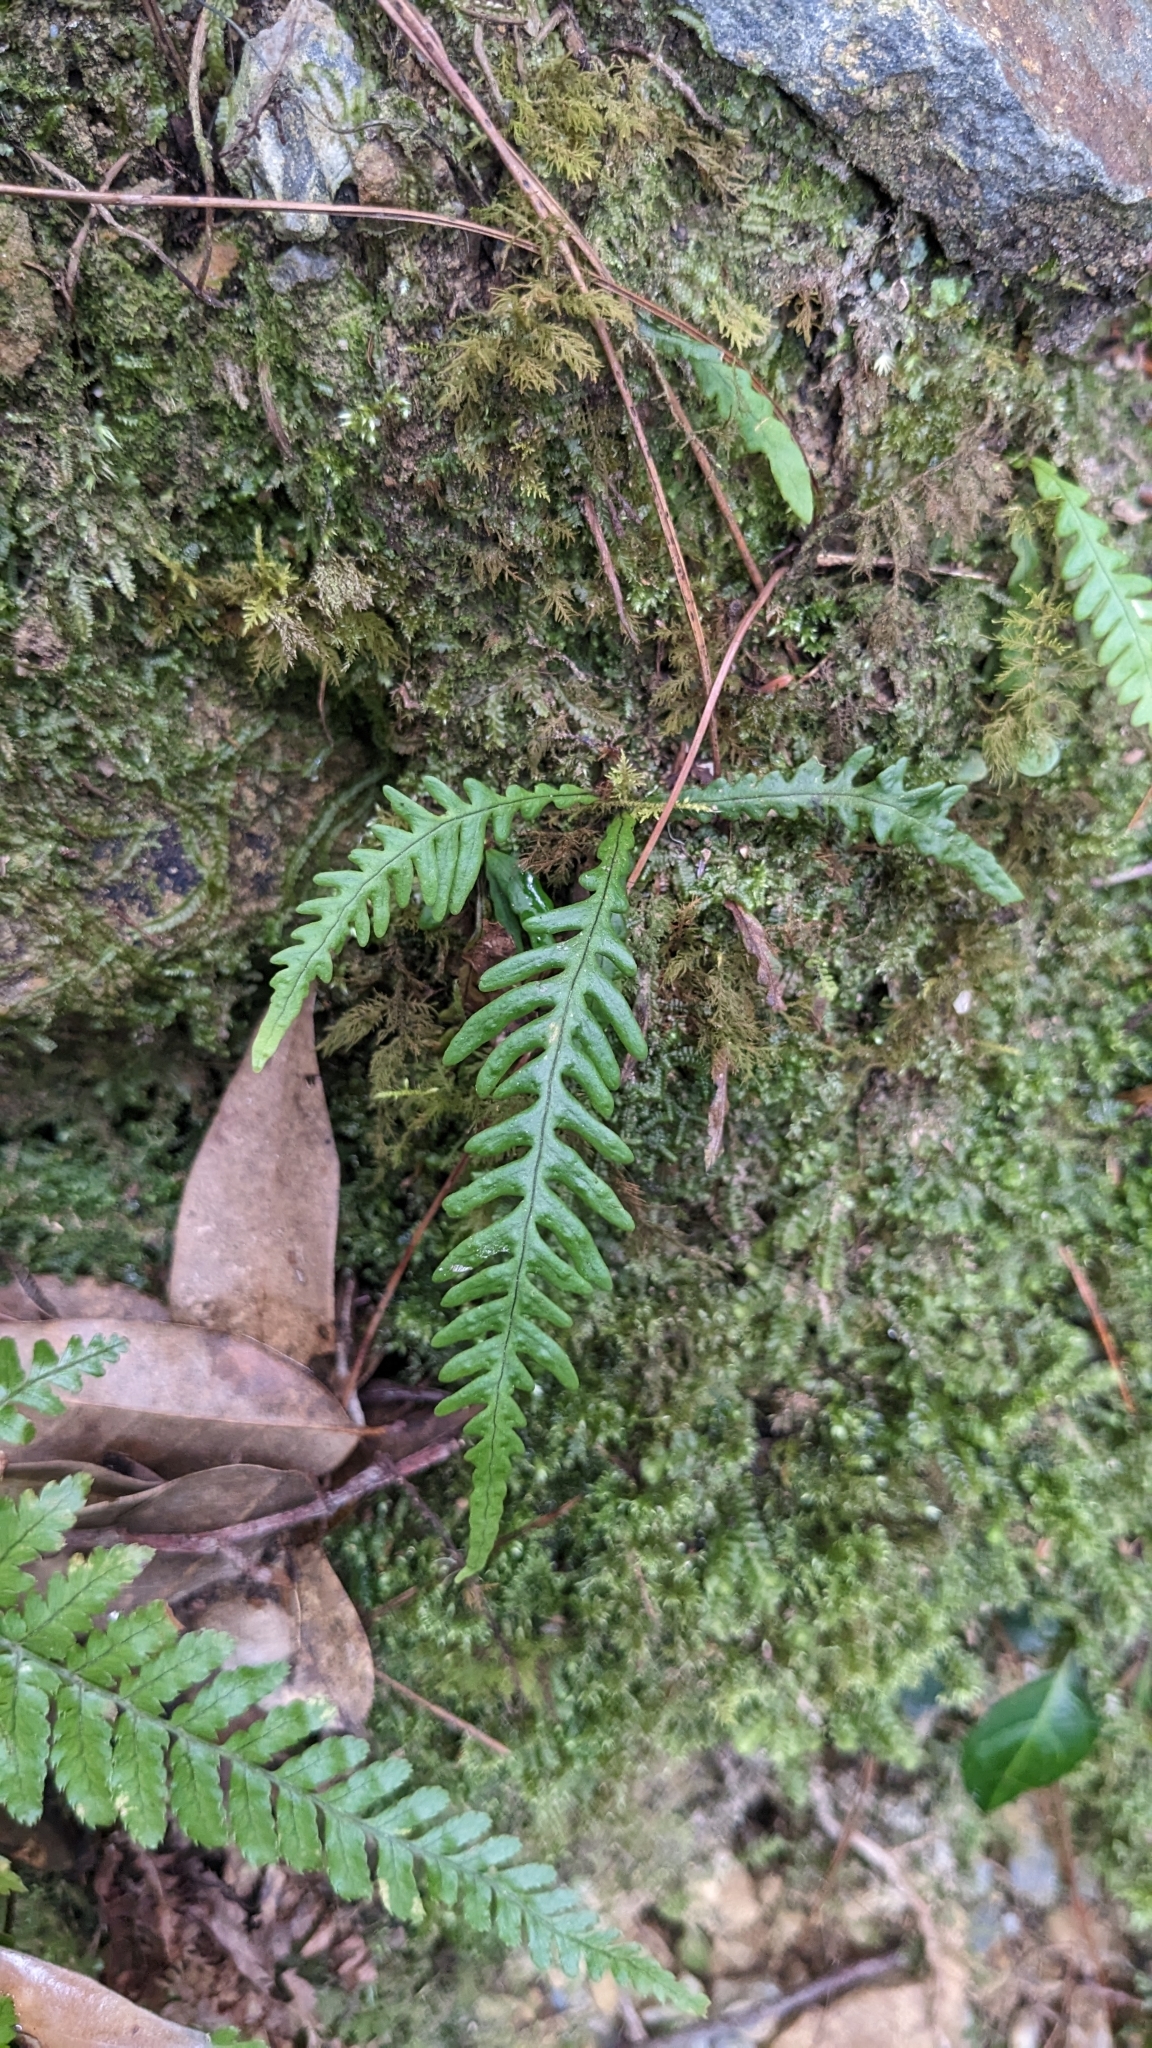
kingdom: Plantae
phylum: Tracheophyta
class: Polypodiopsida
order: Polypodiales
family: Polypodiaceae
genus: Oreogrammitis
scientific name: Oreogrammitis curtisii
